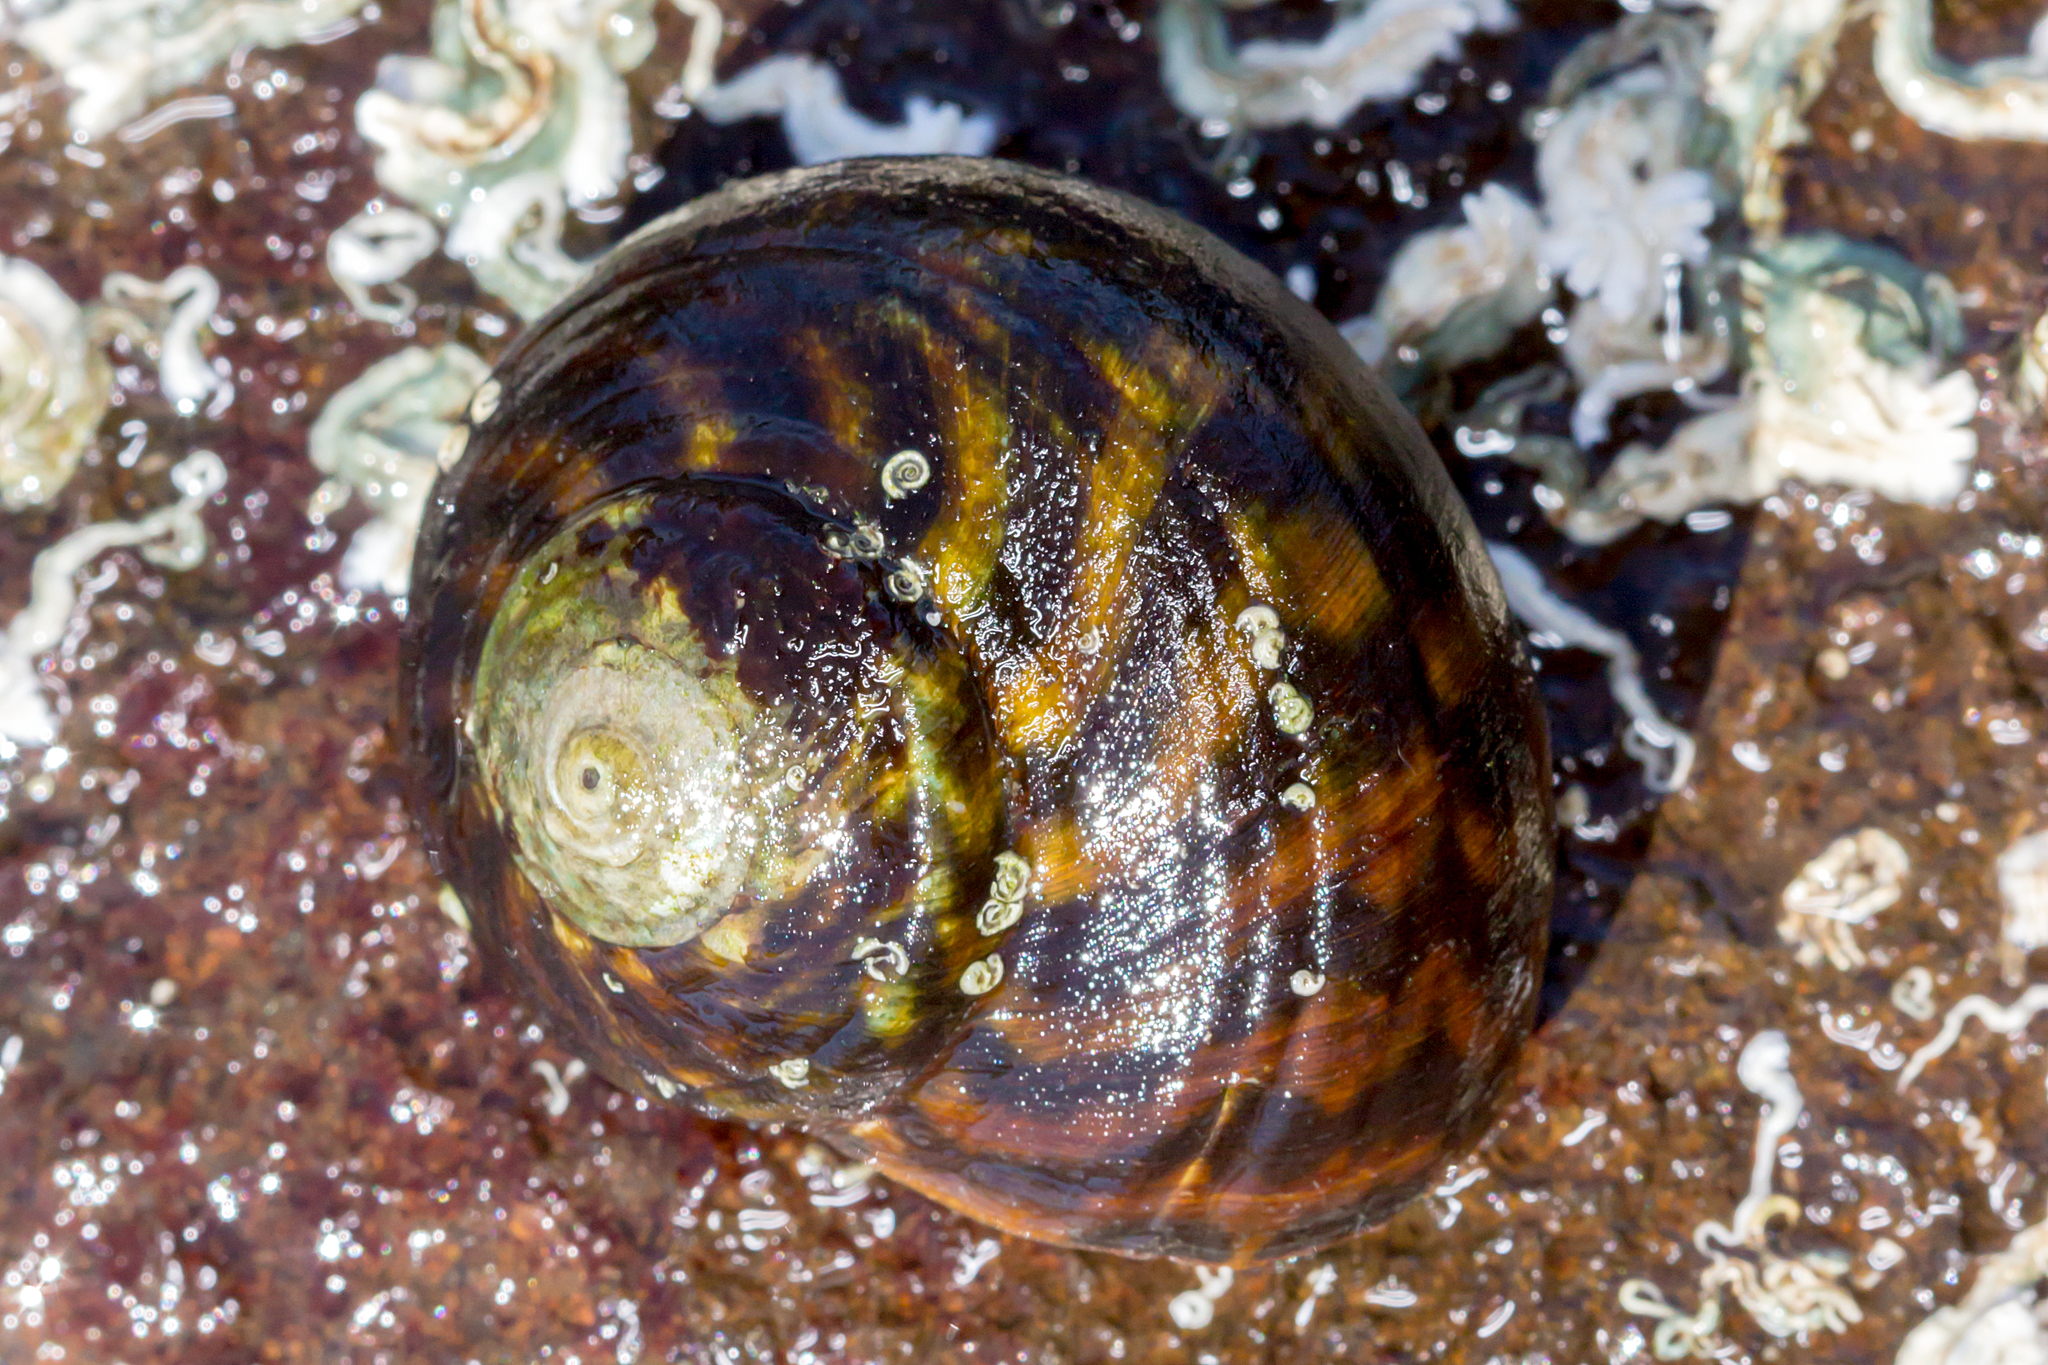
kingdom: Animalia
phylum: Mollusca
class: Gastropoda
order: Trochida
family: Turbinidae
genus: Lunella
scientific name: Lunella undulata
